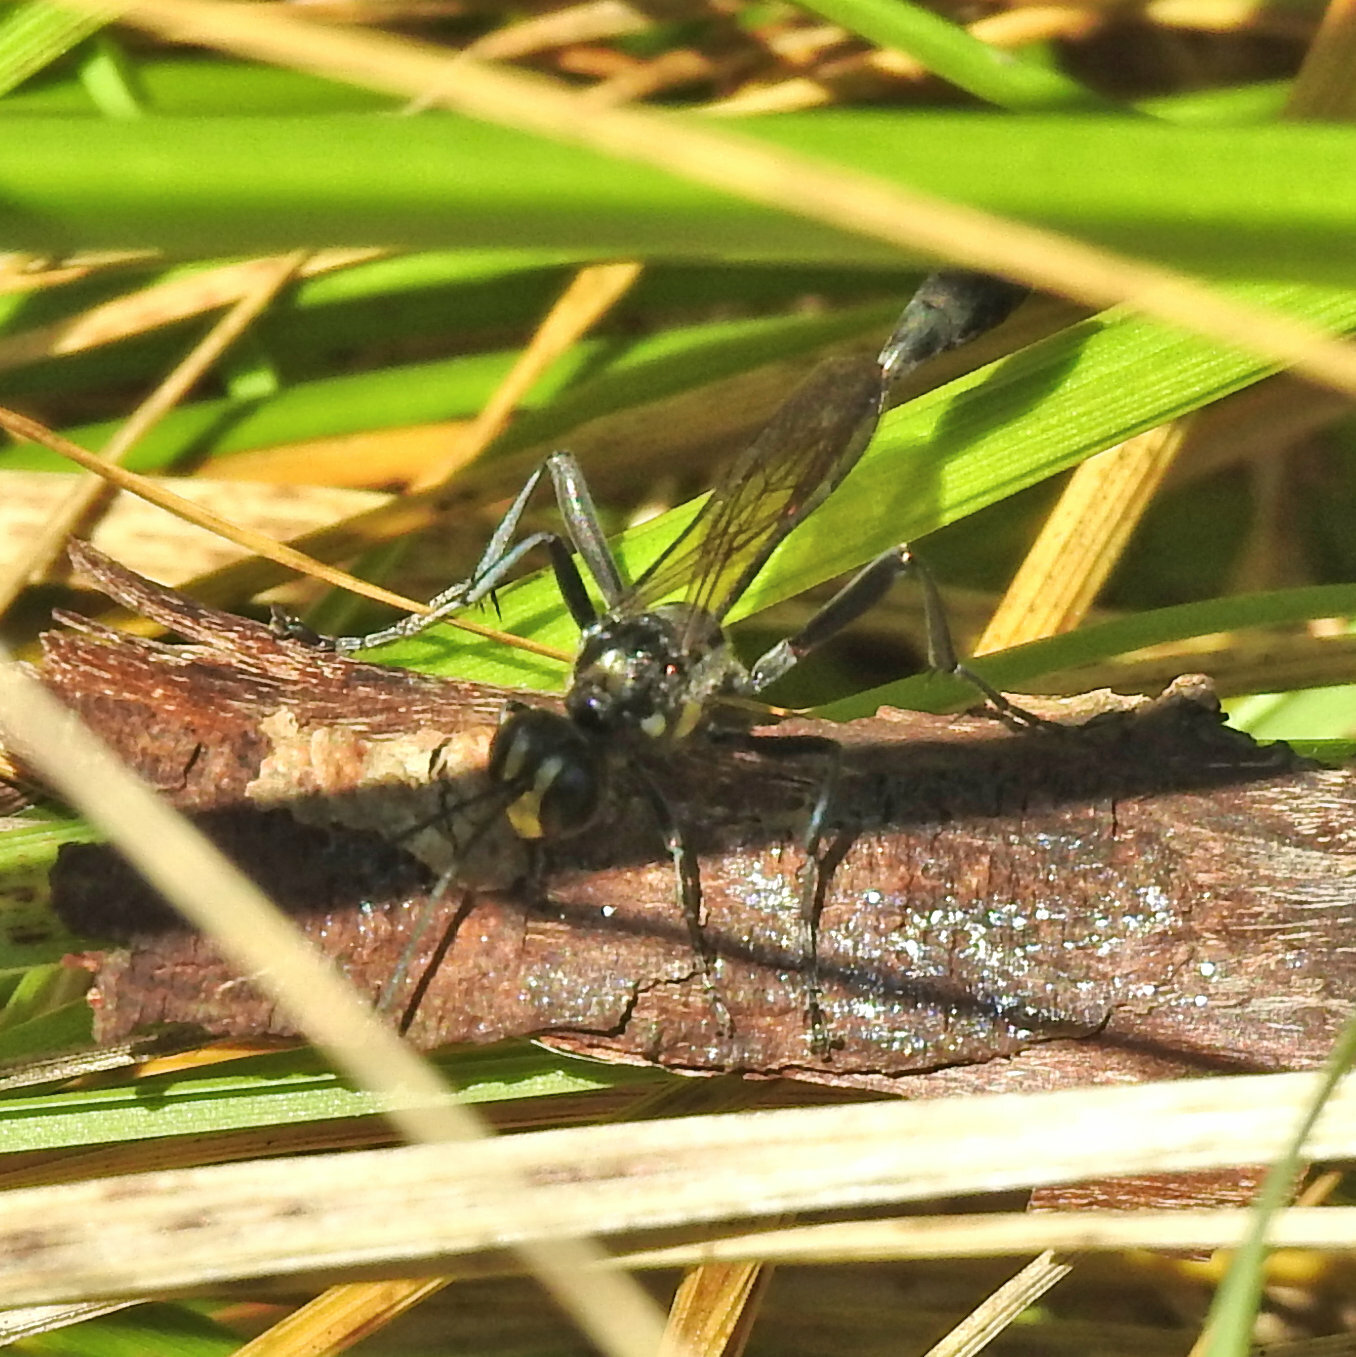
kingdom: Animalia
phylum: Arthropoda
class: Insecta
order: Hymenoptera
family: Sphecidae
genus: Eremnophila
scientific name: Eremnophila aureonotata
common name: Gold-marked thread-waisted wasp
